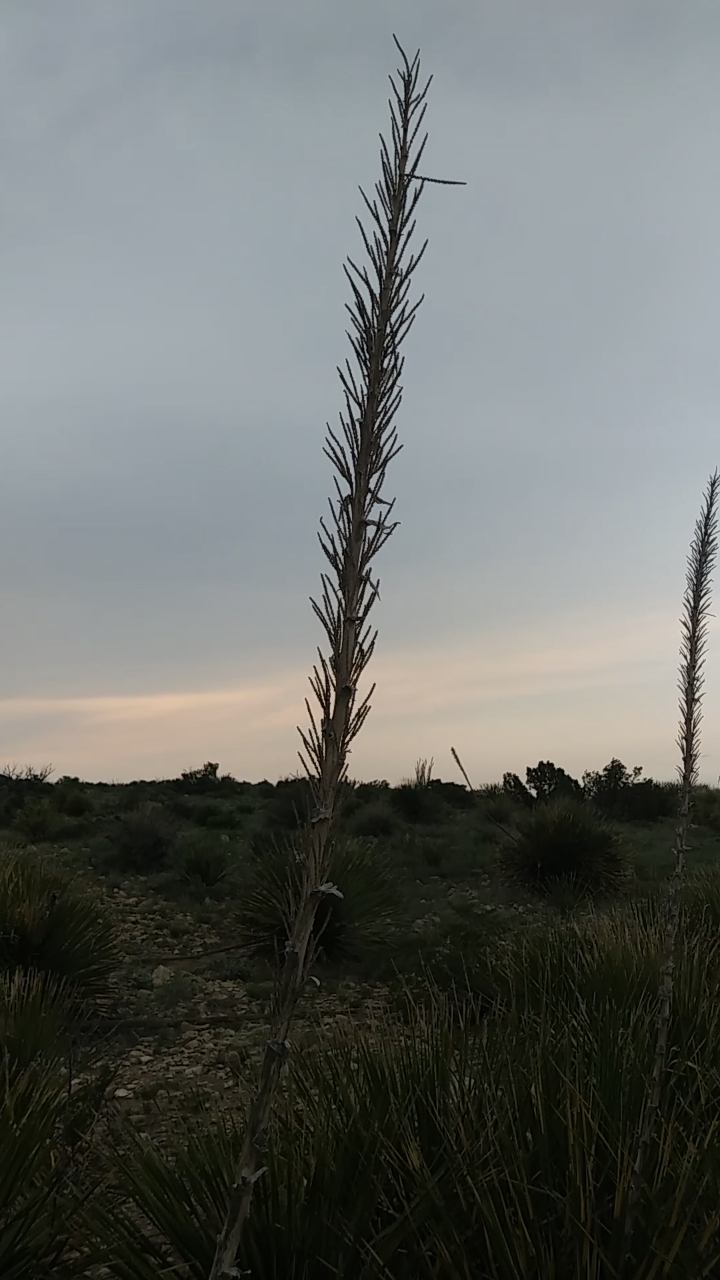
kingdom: Plantae
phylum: Tracheophyta
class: Liliopsida
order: Asparagales
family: Asparagaceae
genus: Dasylirion
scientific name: Dasylirion leiophyllum
